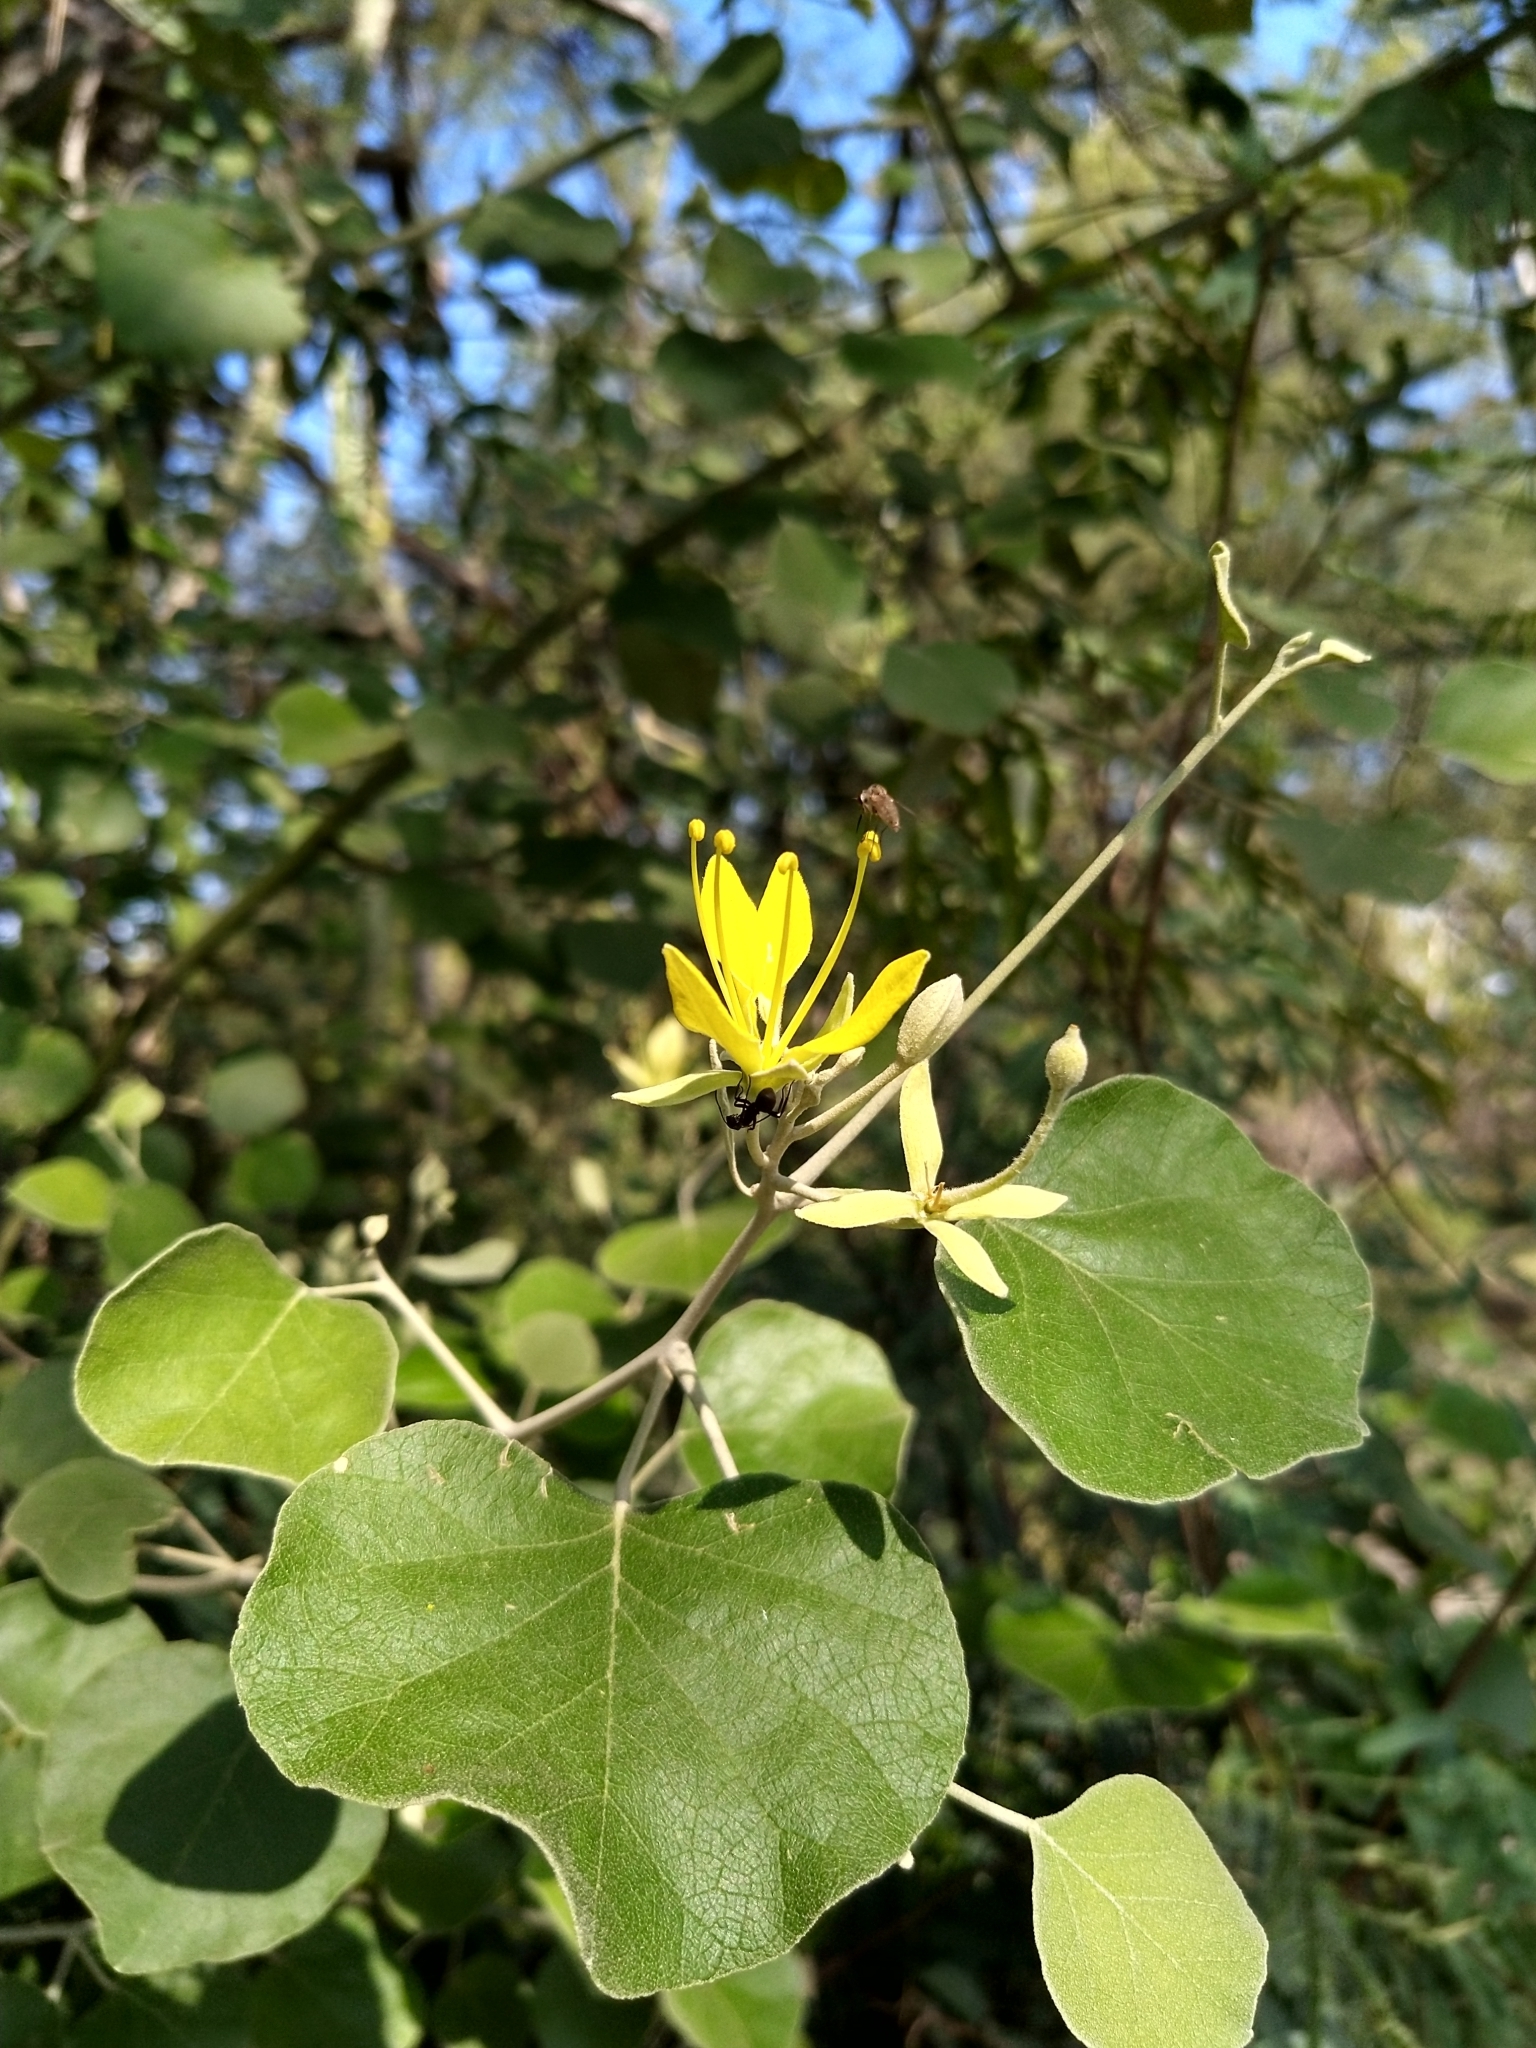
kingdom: Plantae
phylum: Tracheophyta
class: Magnoliopsida
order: Brassicales
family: Capparaceae
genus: Capparicordis
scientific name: Capparicordis tweedieana
